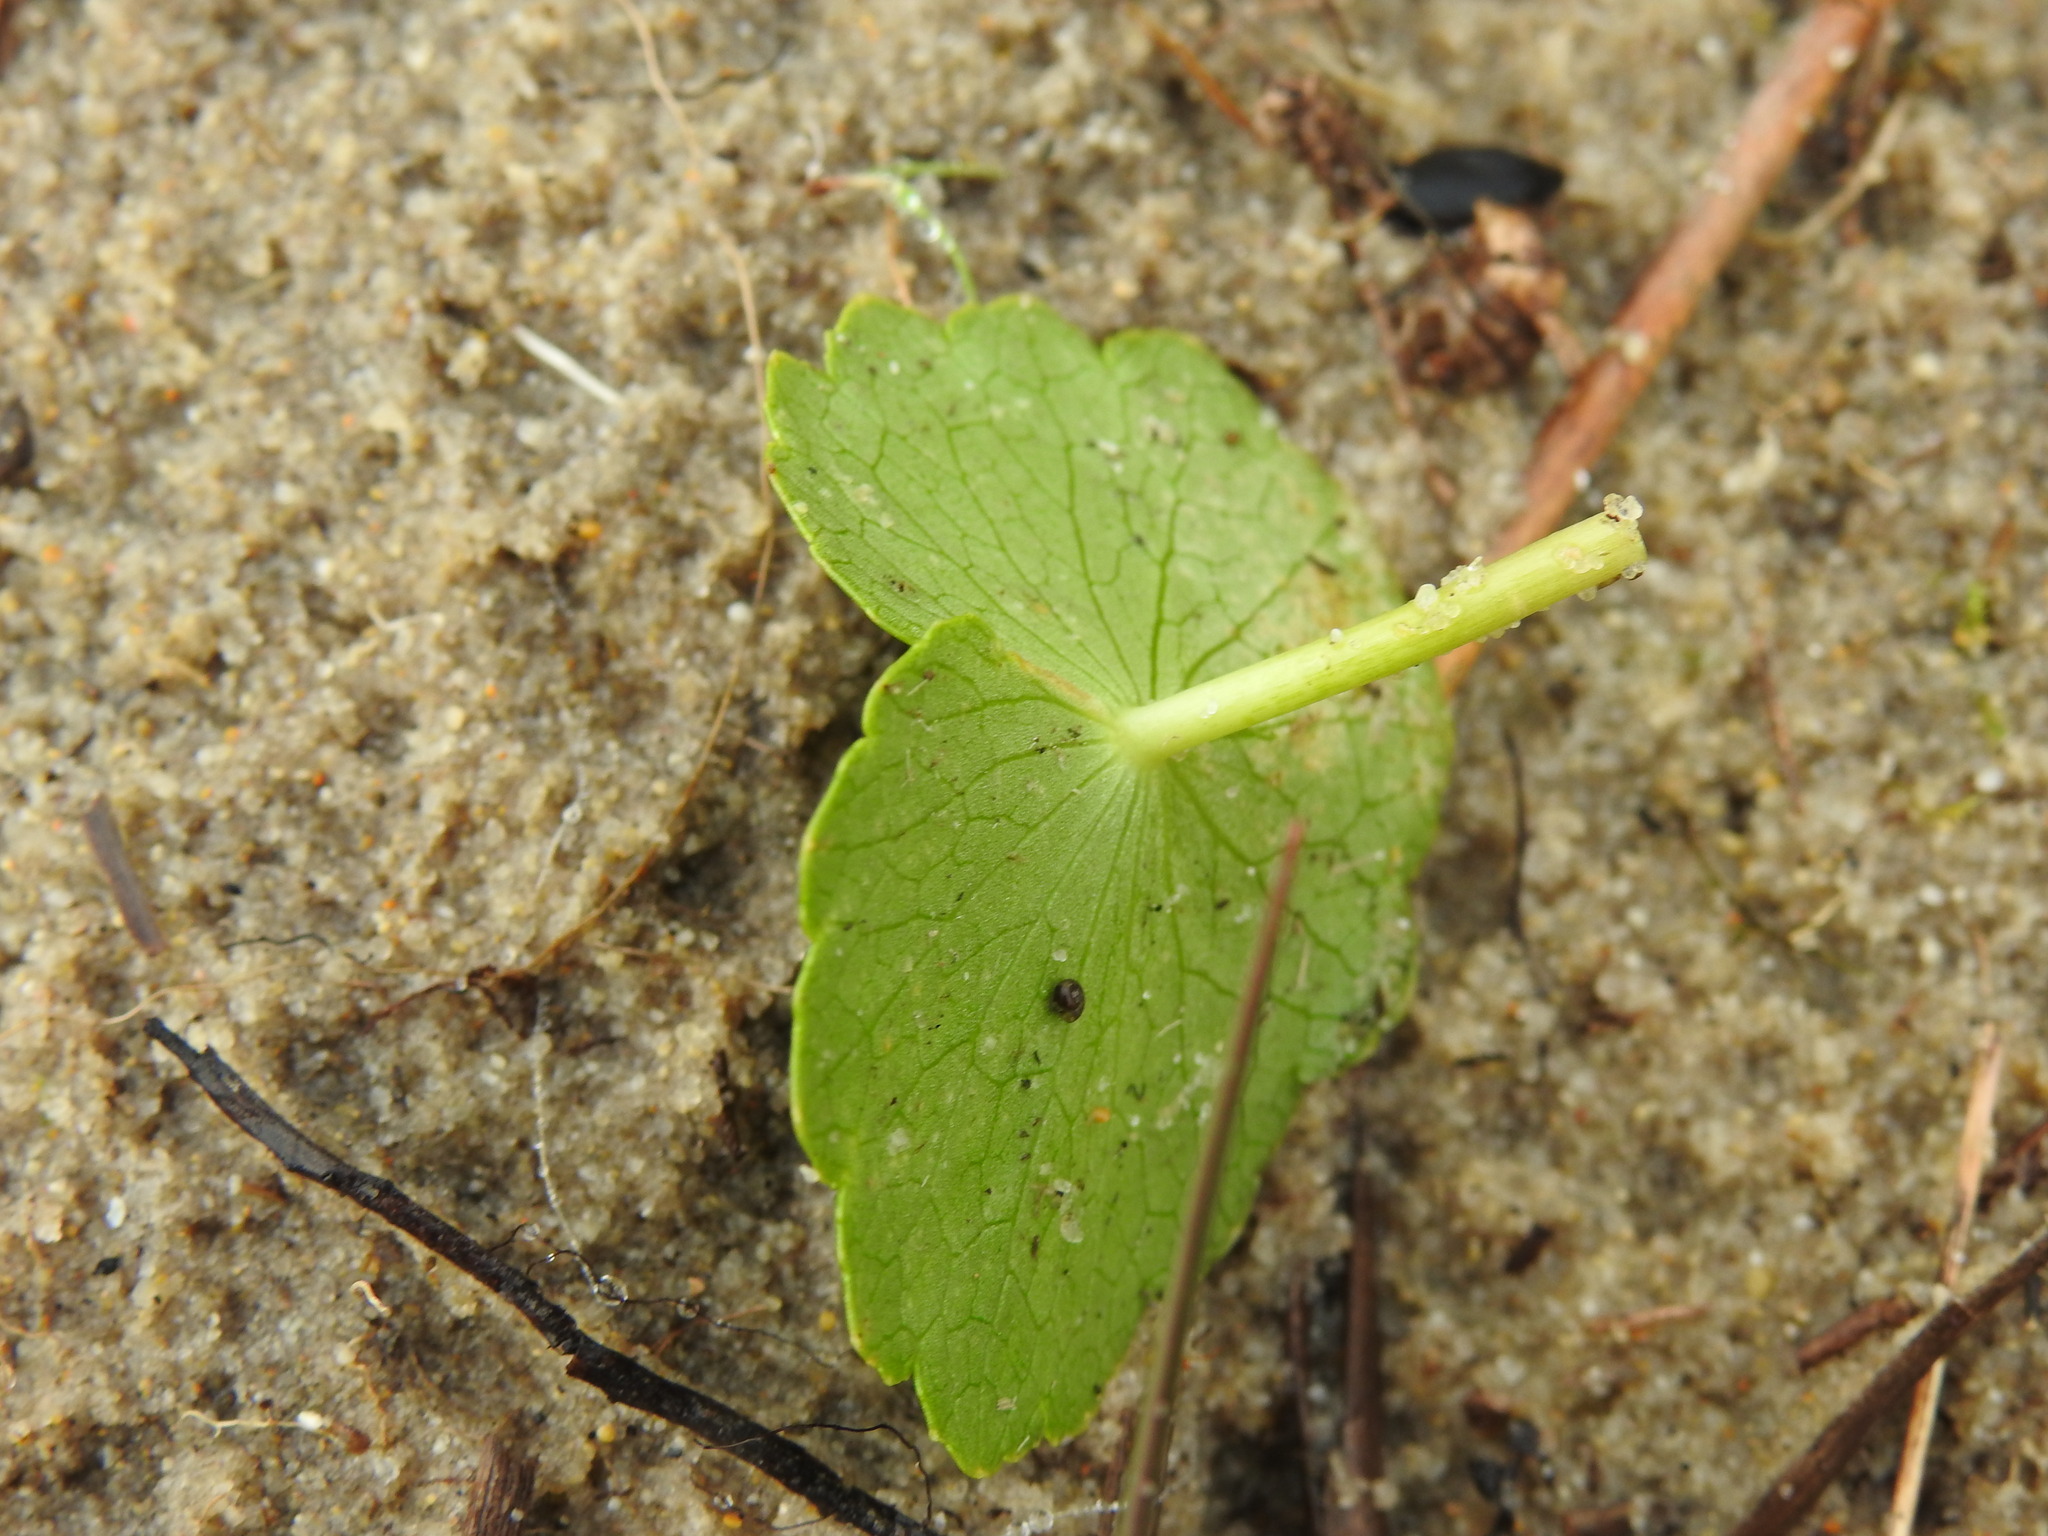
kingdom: Plantae
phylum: Tracheophyta
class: Magnoliopsida
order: Apiales
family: Araliaceae
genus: Hydrocotyle
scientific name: Hydrocotyle bonariensis
